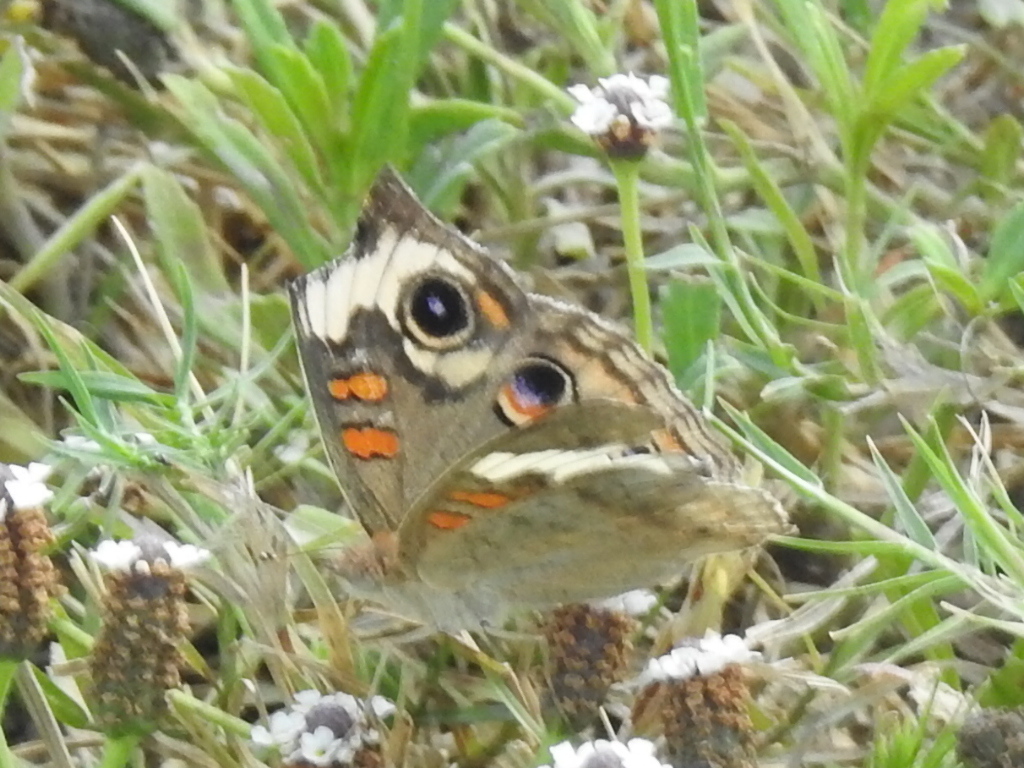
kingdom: Animalia
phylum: Arthropoda
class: Insecta
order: Lepidoptera
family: Nymphalidae
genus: Junonia
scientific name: Junonia coenia
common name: Common buckeye
